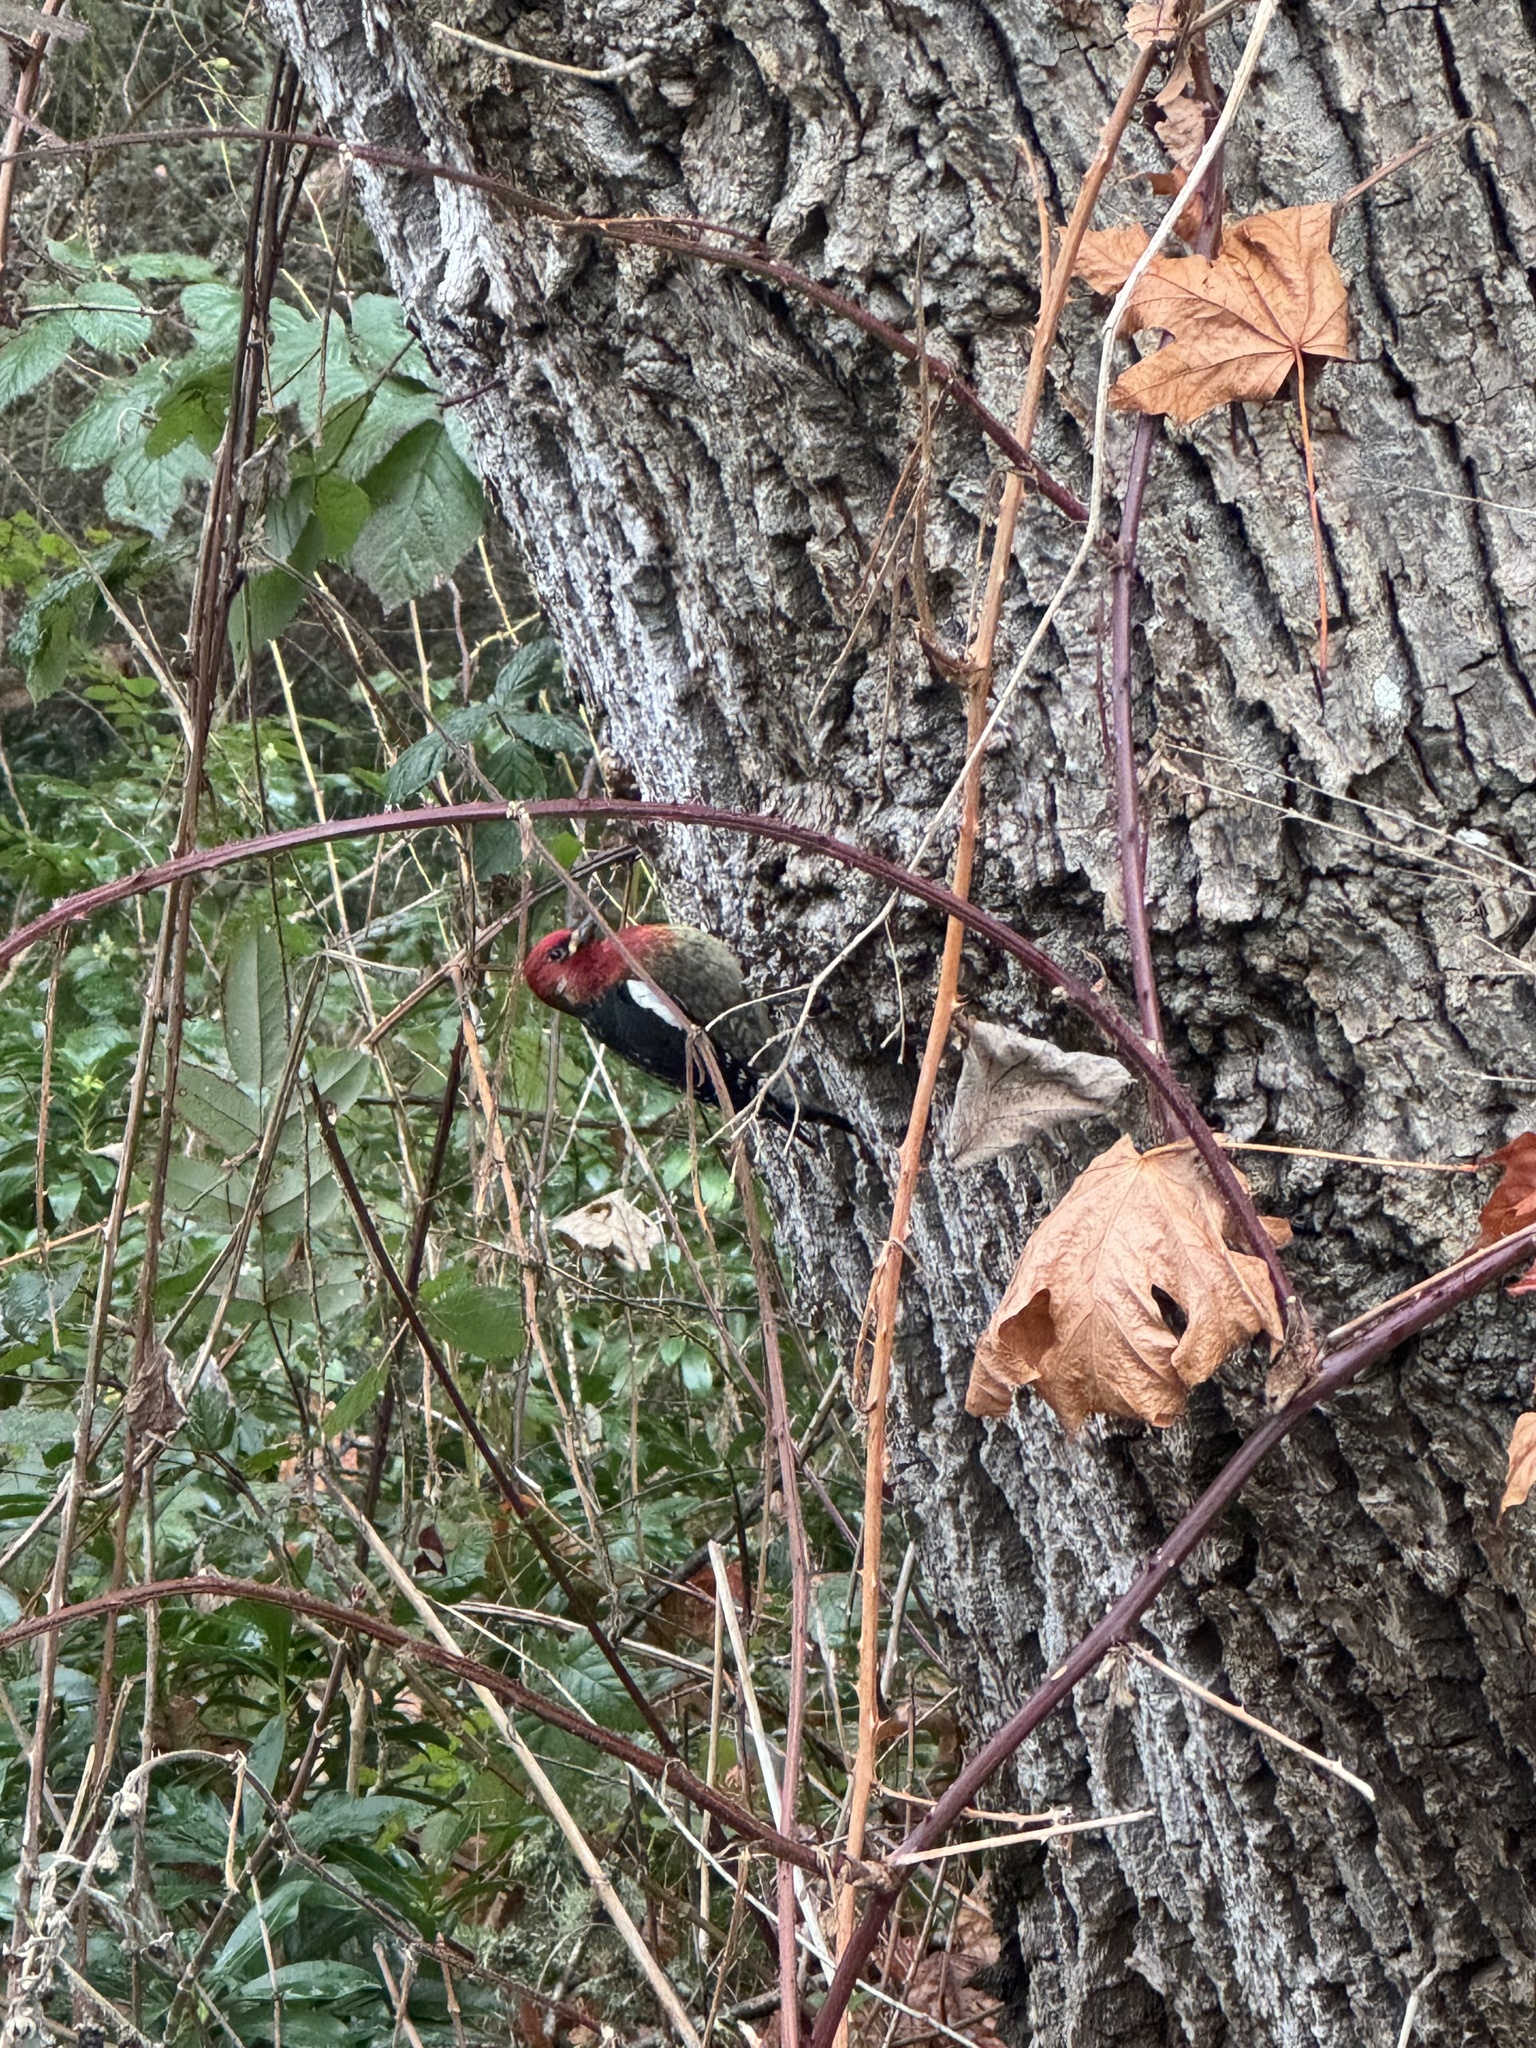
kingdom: Animalia
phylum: Chordata
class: Aves
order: Piciformes
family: Picidae
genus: Sphyrapicus
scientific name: Sphyrapicus ruber
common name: Red-breasted sapsucker
